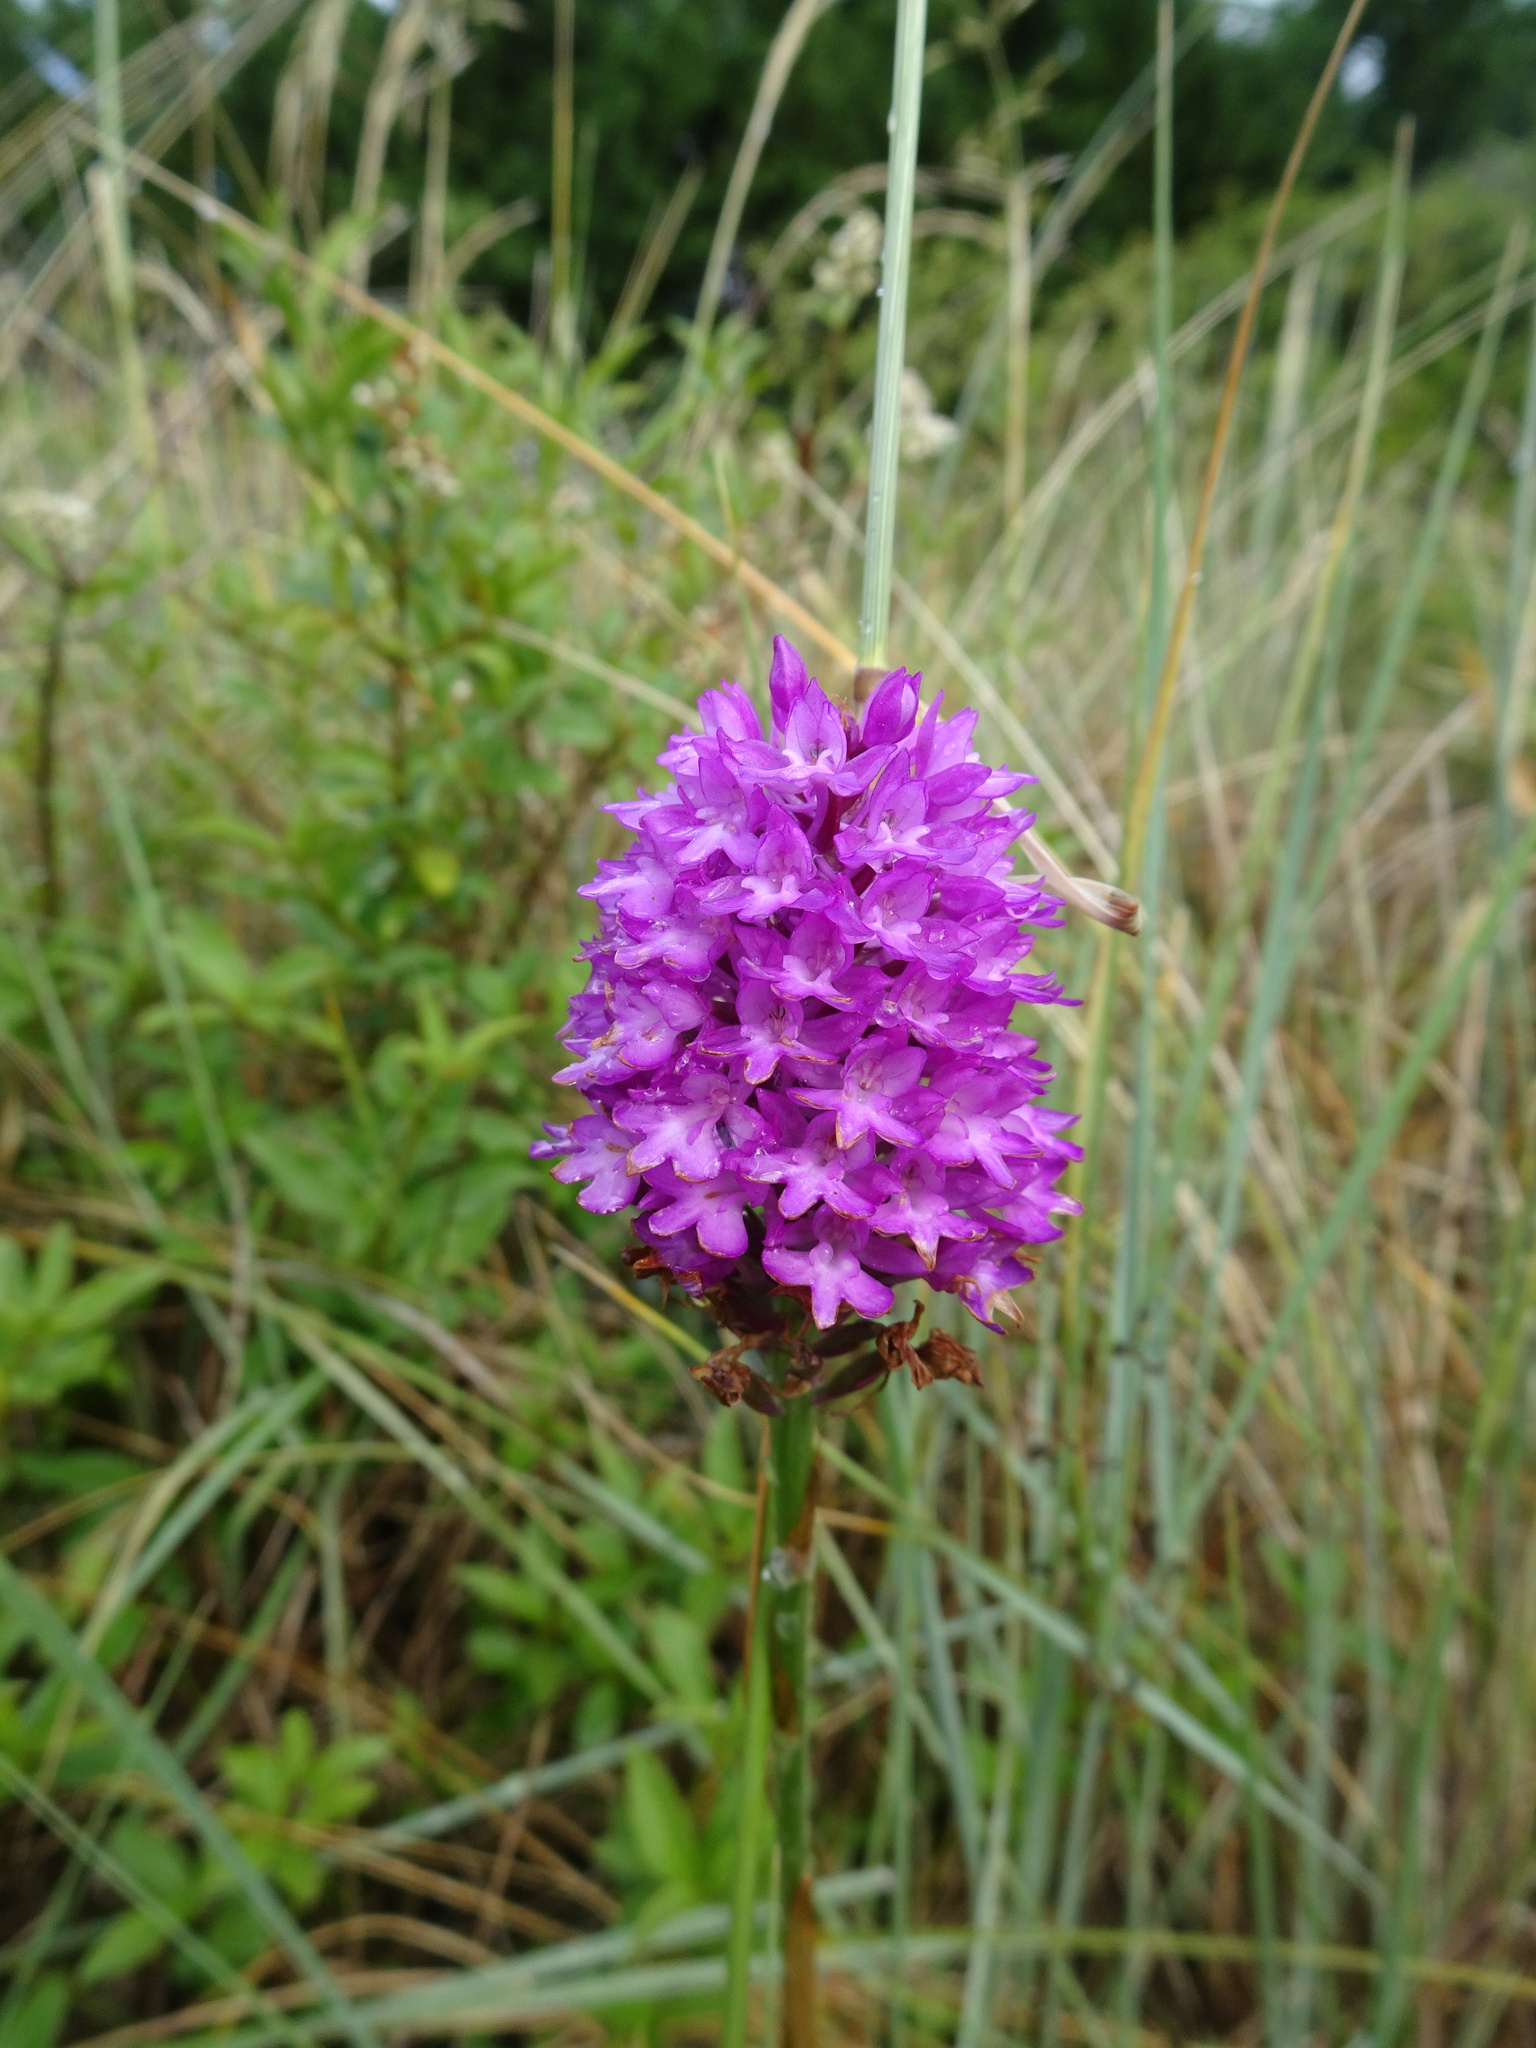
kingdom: Plantae
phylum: Tracheophyta
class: Liliopsida
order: Asparagales
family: Orchidaceae
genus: Anacamptis
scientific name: Anacamptis pyramidalis
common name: Pyramidal orchid
